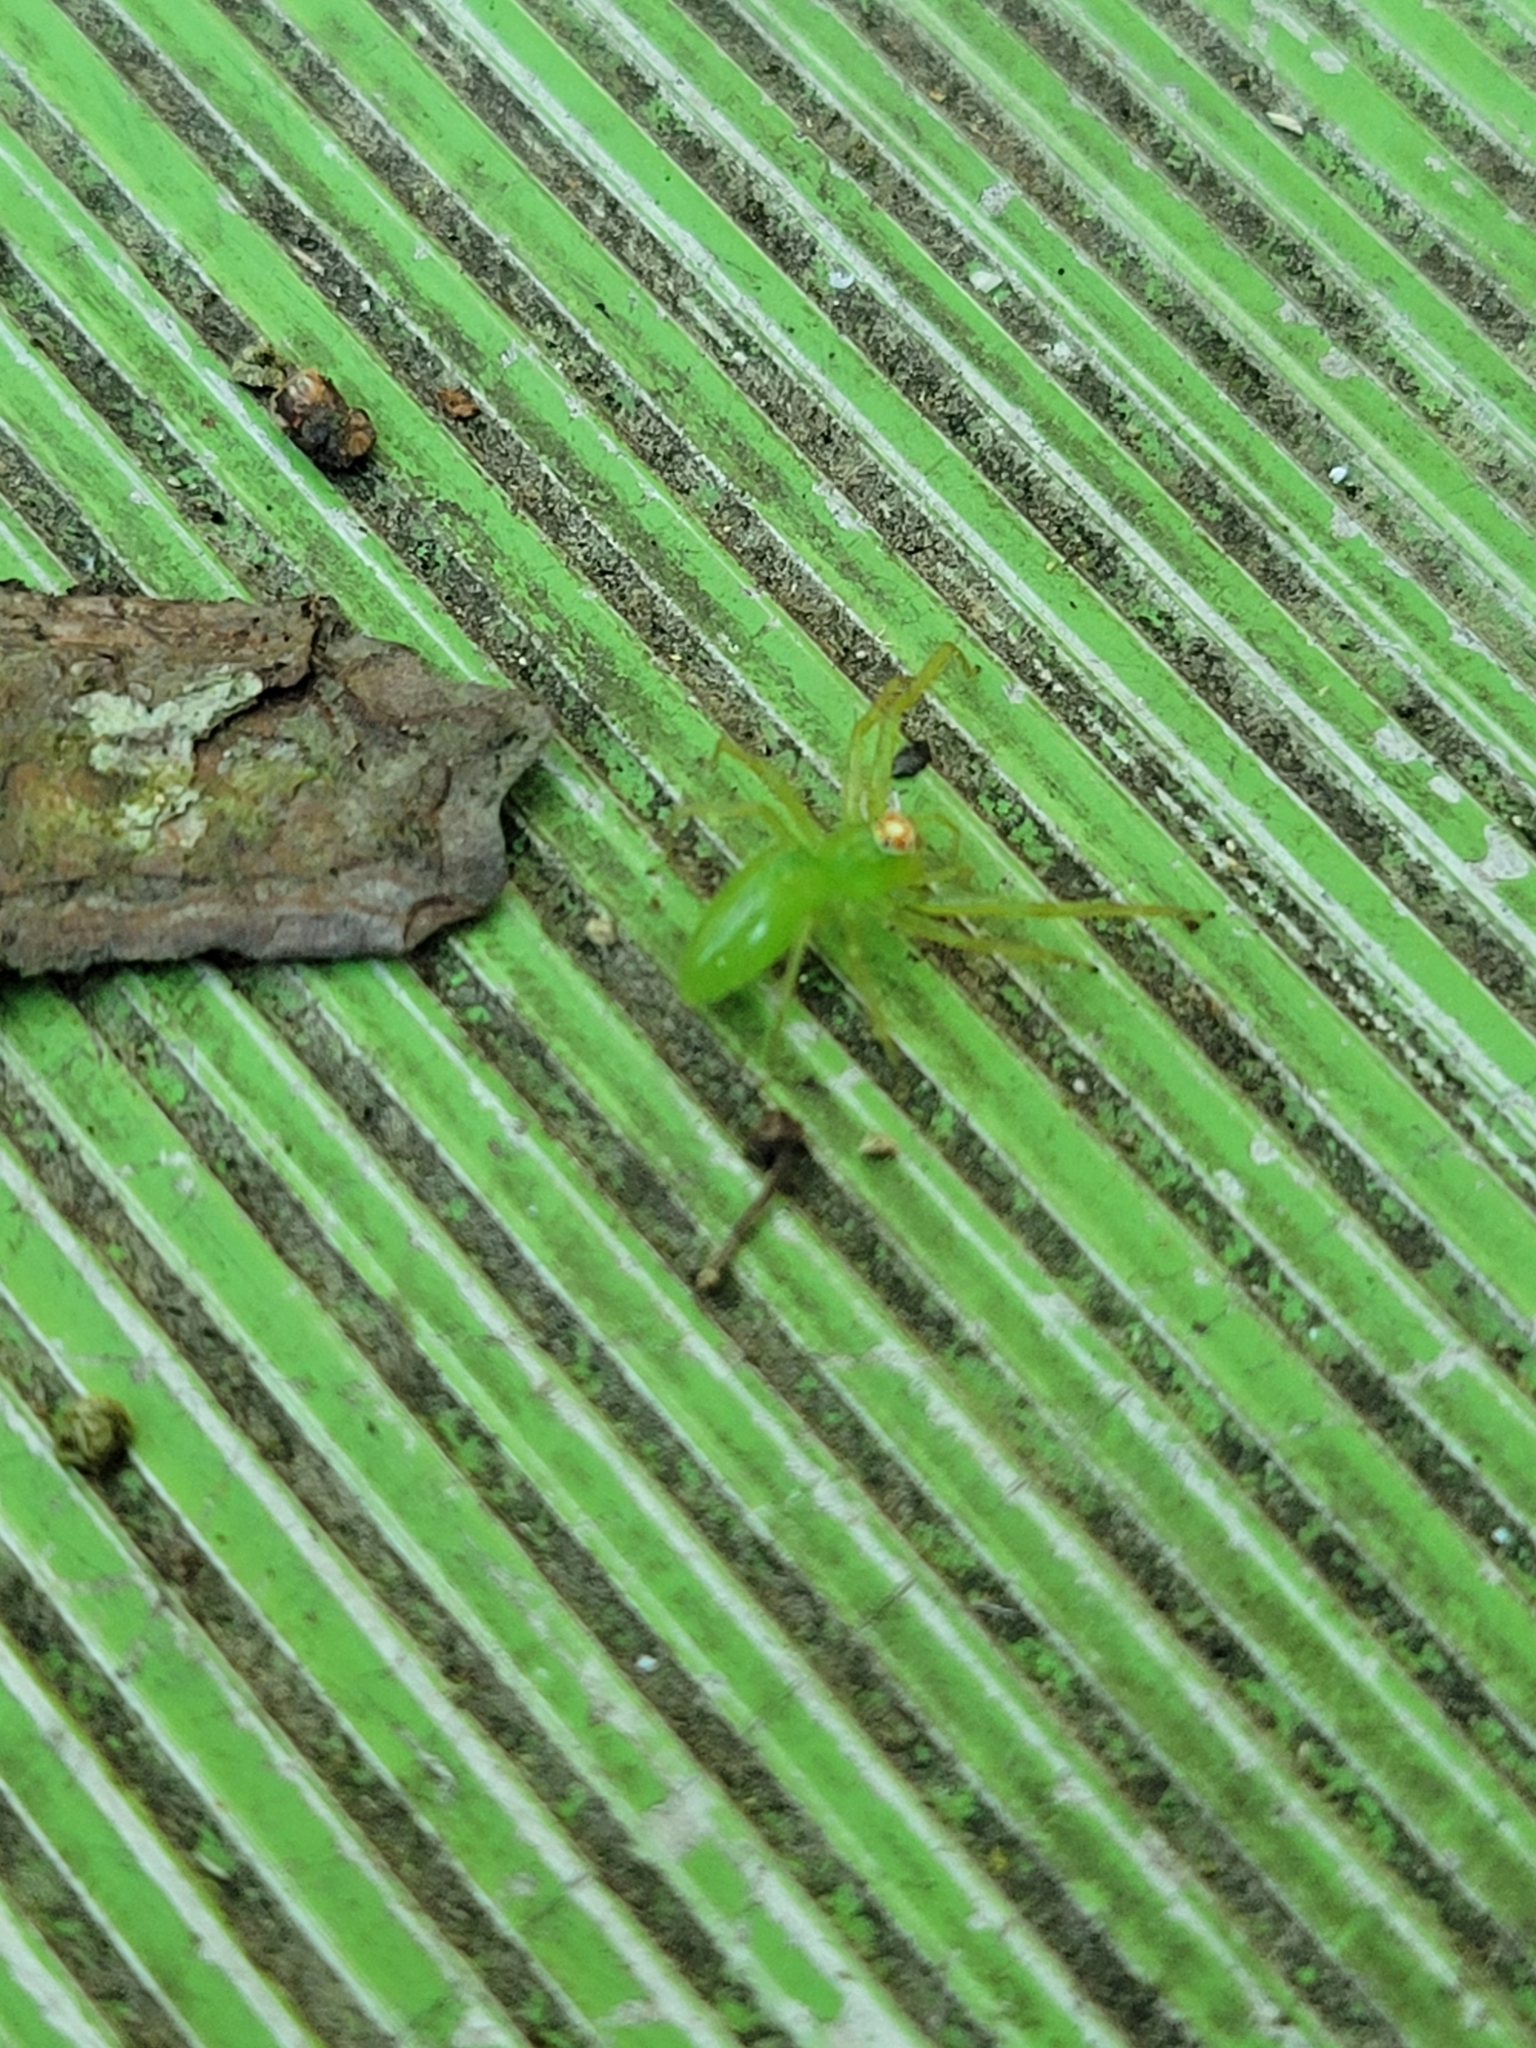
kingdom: Animalia
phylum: Arthropoda
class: Arachnida
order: Araneae
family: Salticidae
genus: Lyssomanes
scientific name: Lyssomanes viridis
